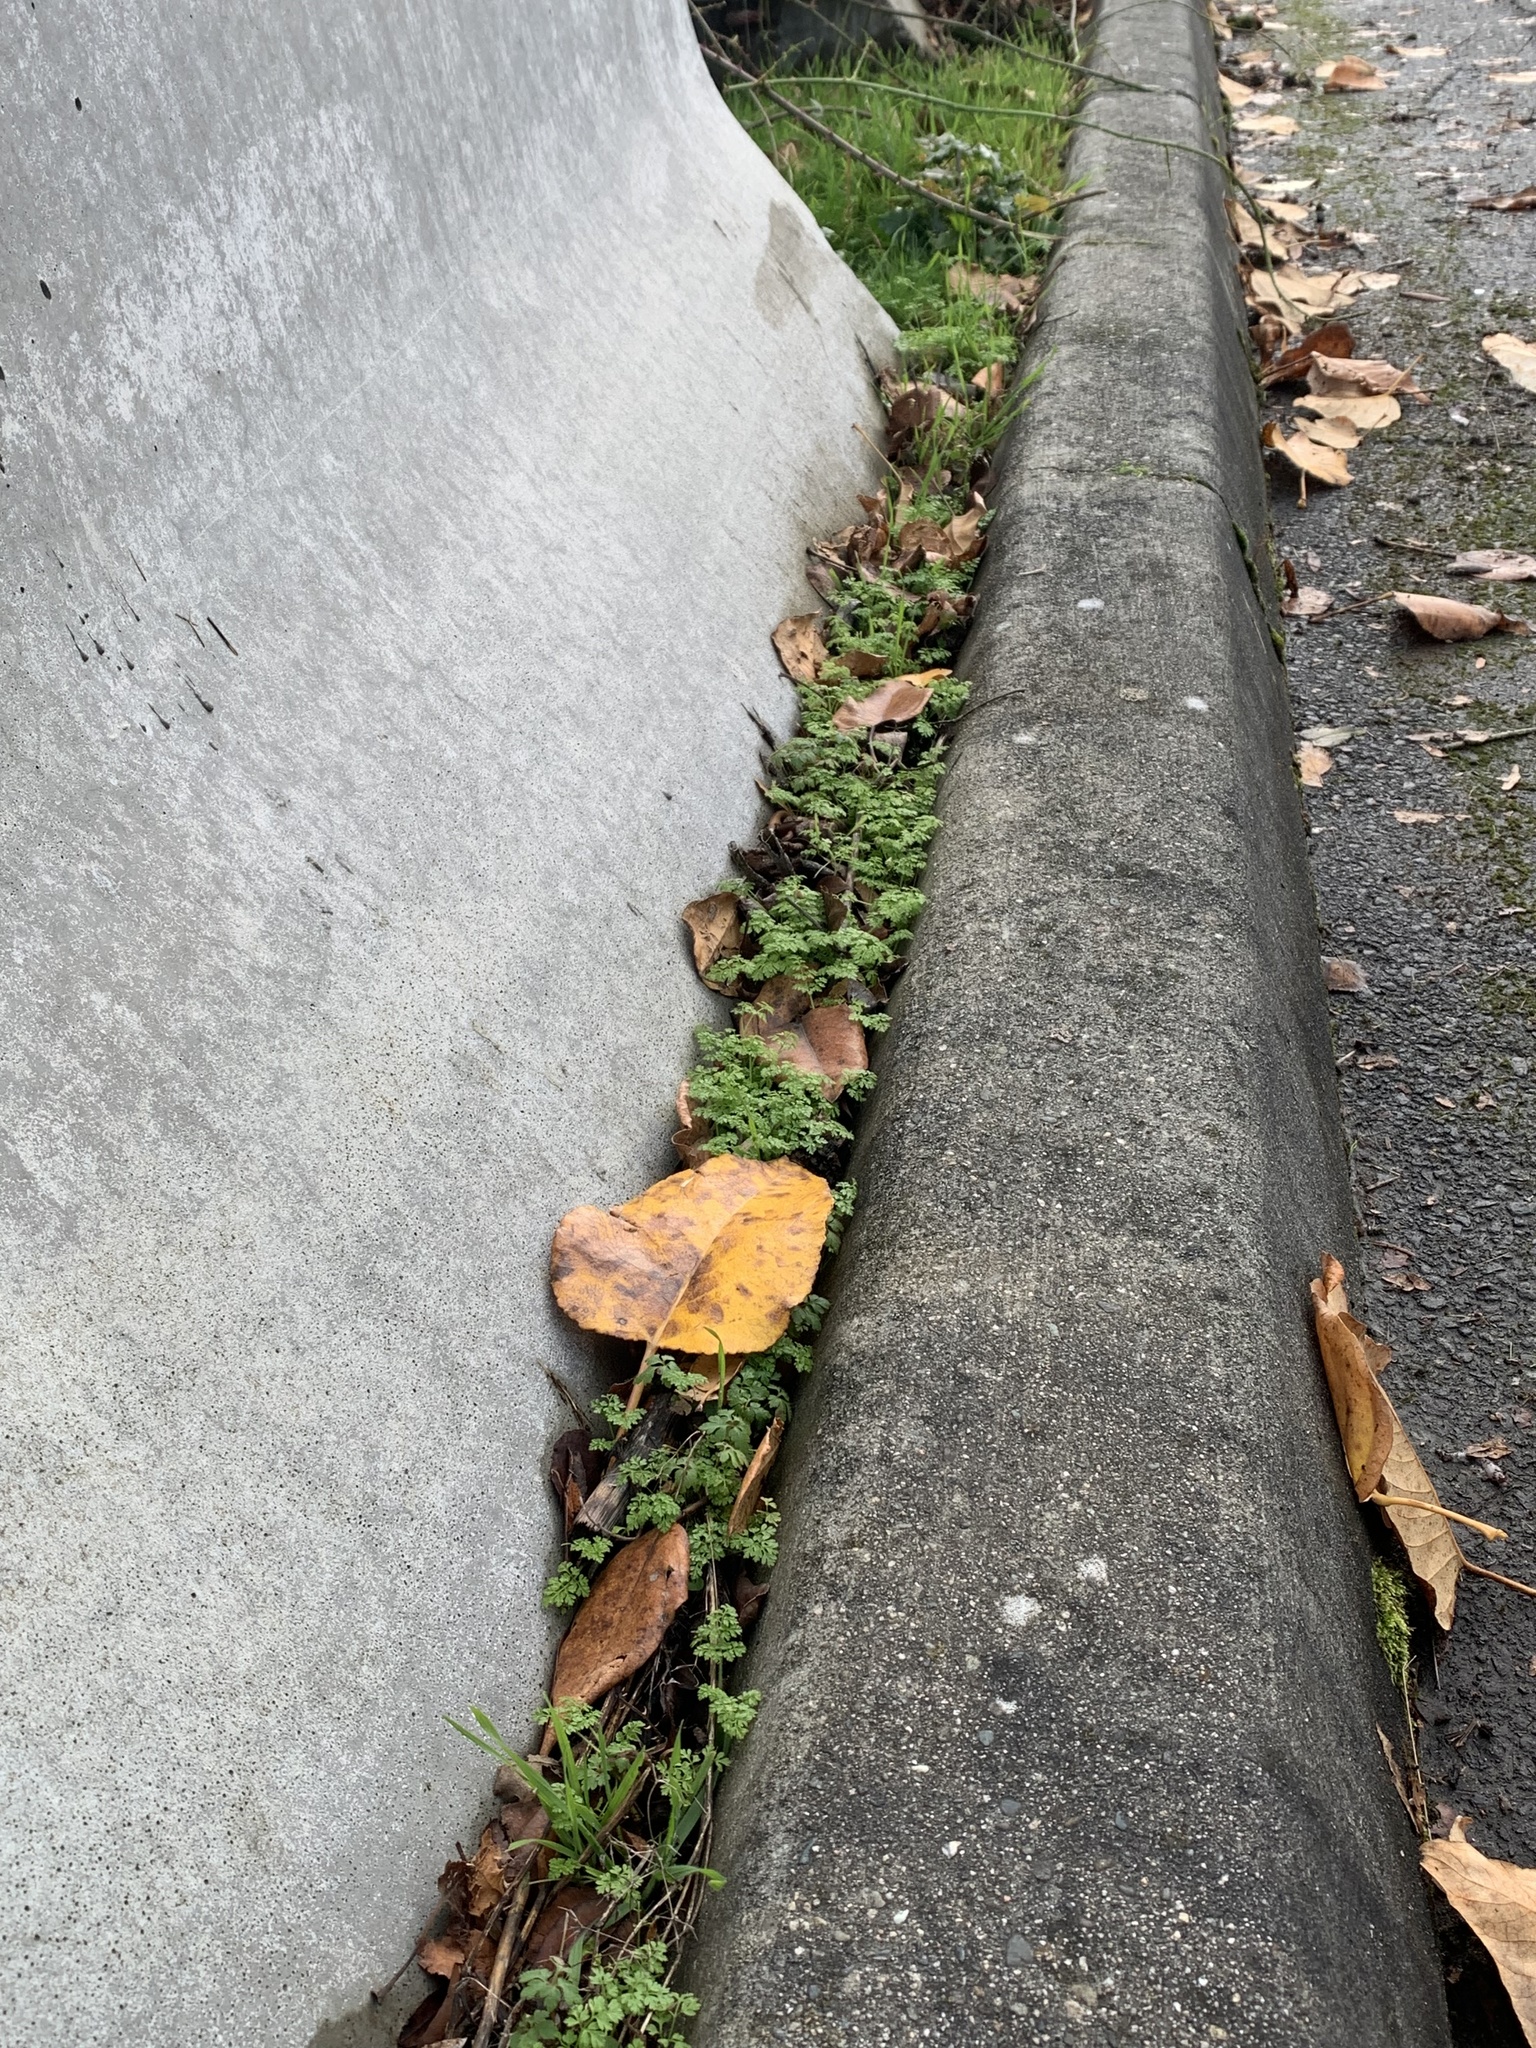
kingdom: Plantae
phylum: Tracheophyta
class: Magnoliopsida
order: Apiales
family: Apiaceae
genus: Anthriscus
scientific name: Anthriscus caucalis
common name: Bur chervil
